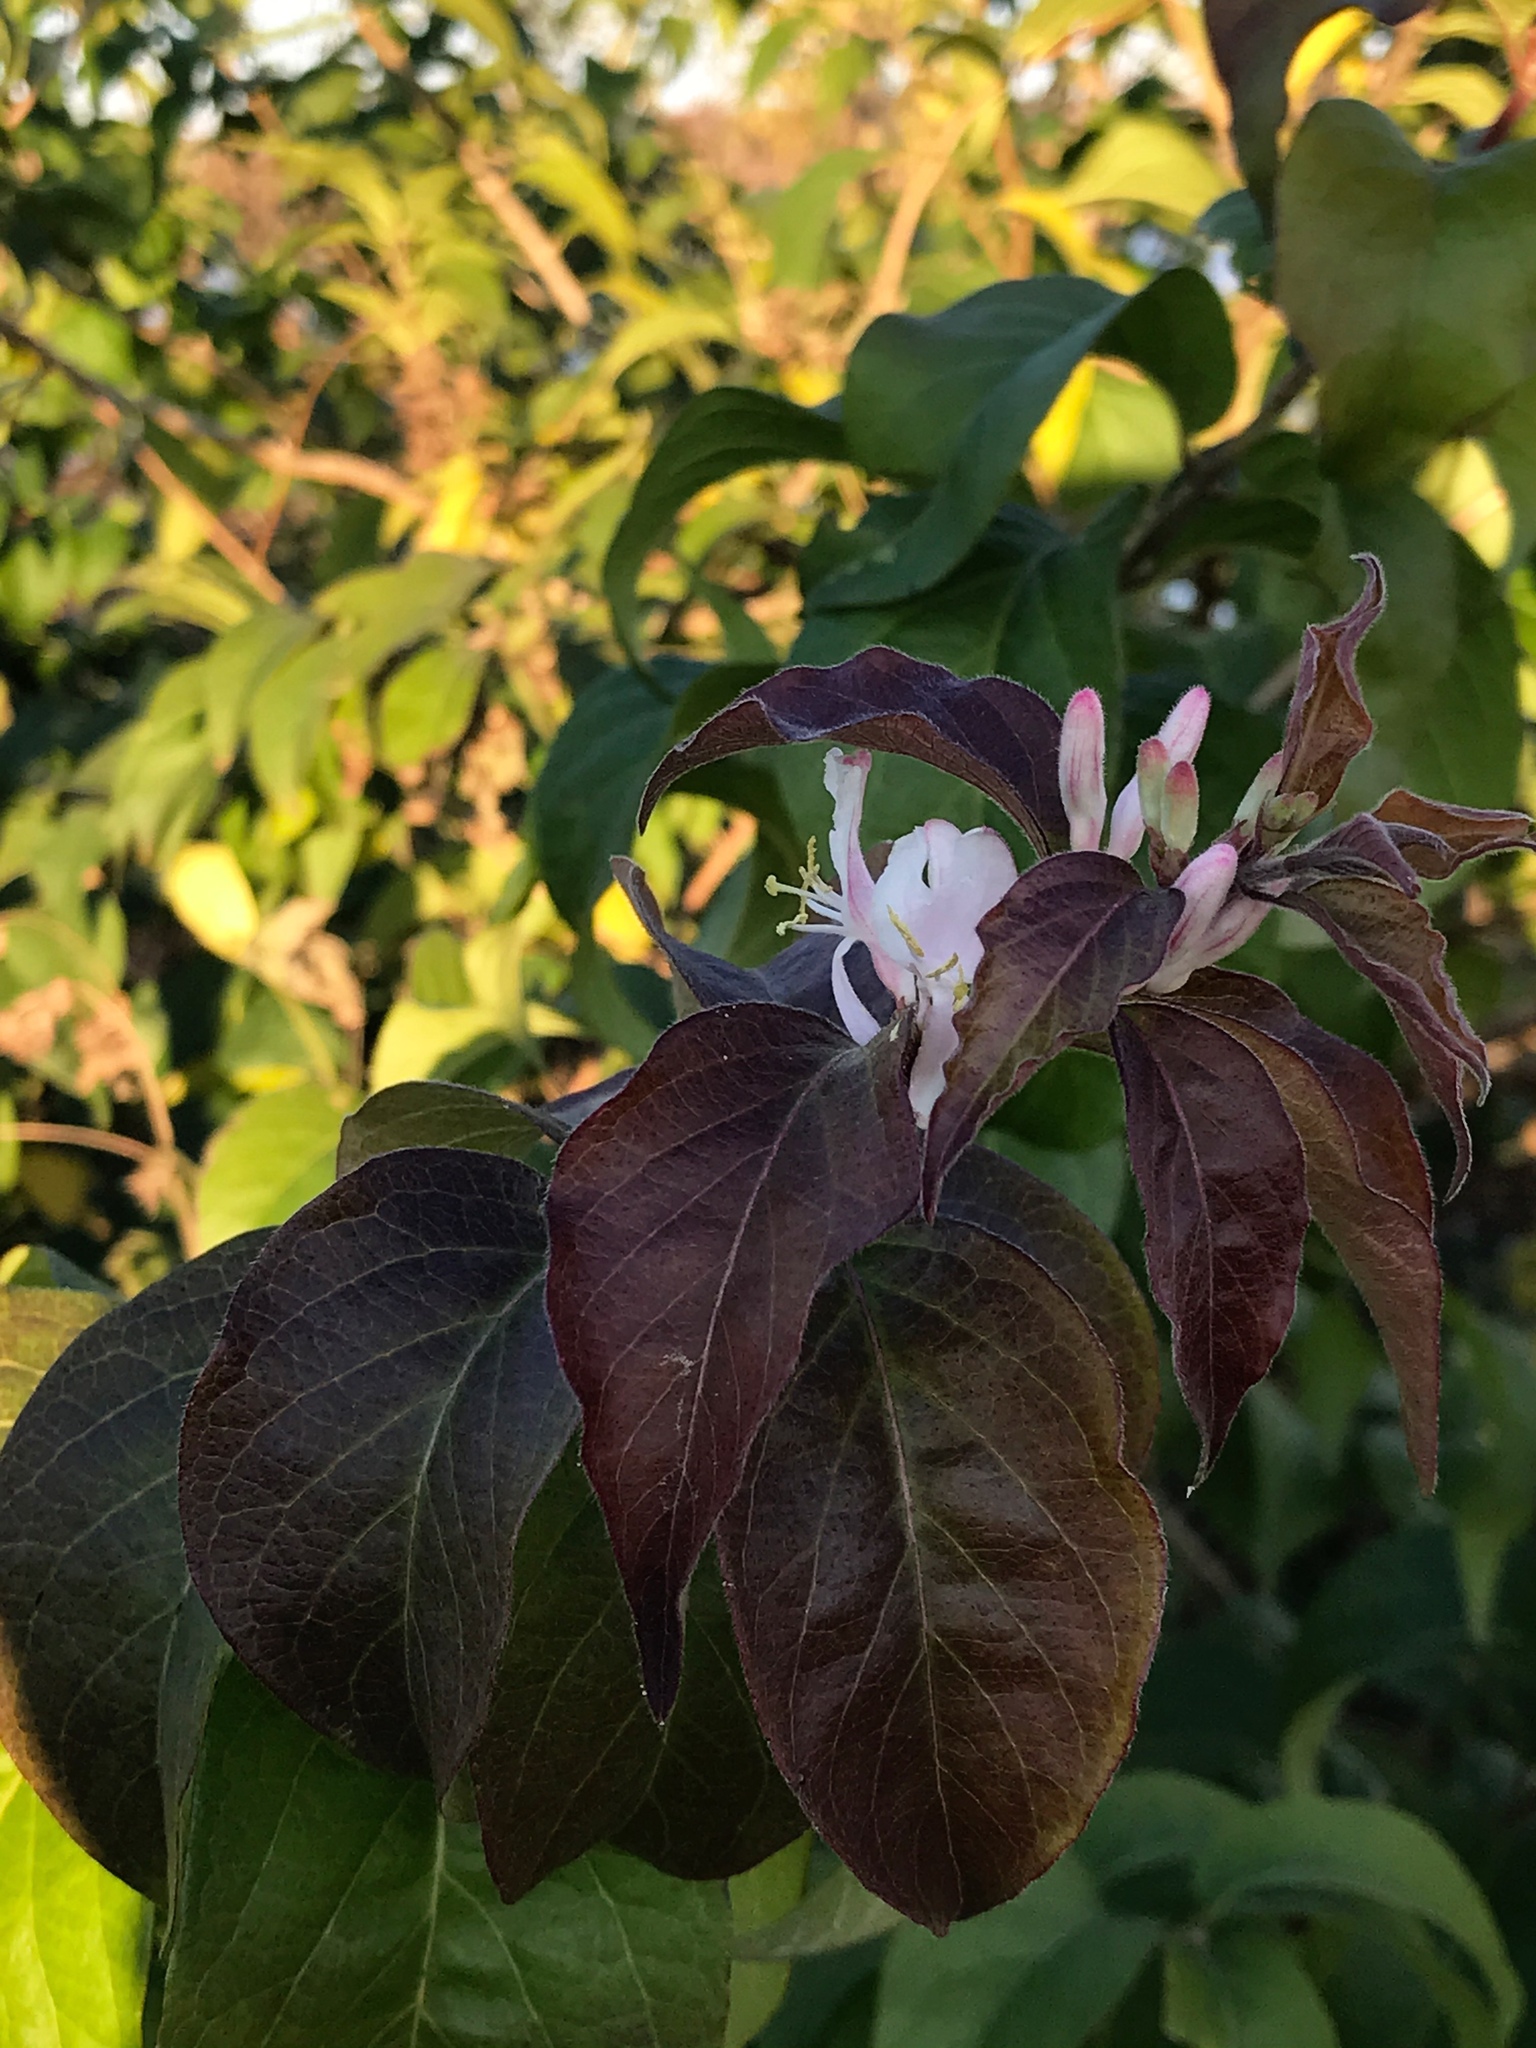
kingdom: Plantae
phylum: Tracheophyta
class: Magnoliopsida
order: Dipsacales
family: Caprifoliaceae
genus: Lonicera
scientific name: Lonicera maackii
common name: Amur honeysuckle
